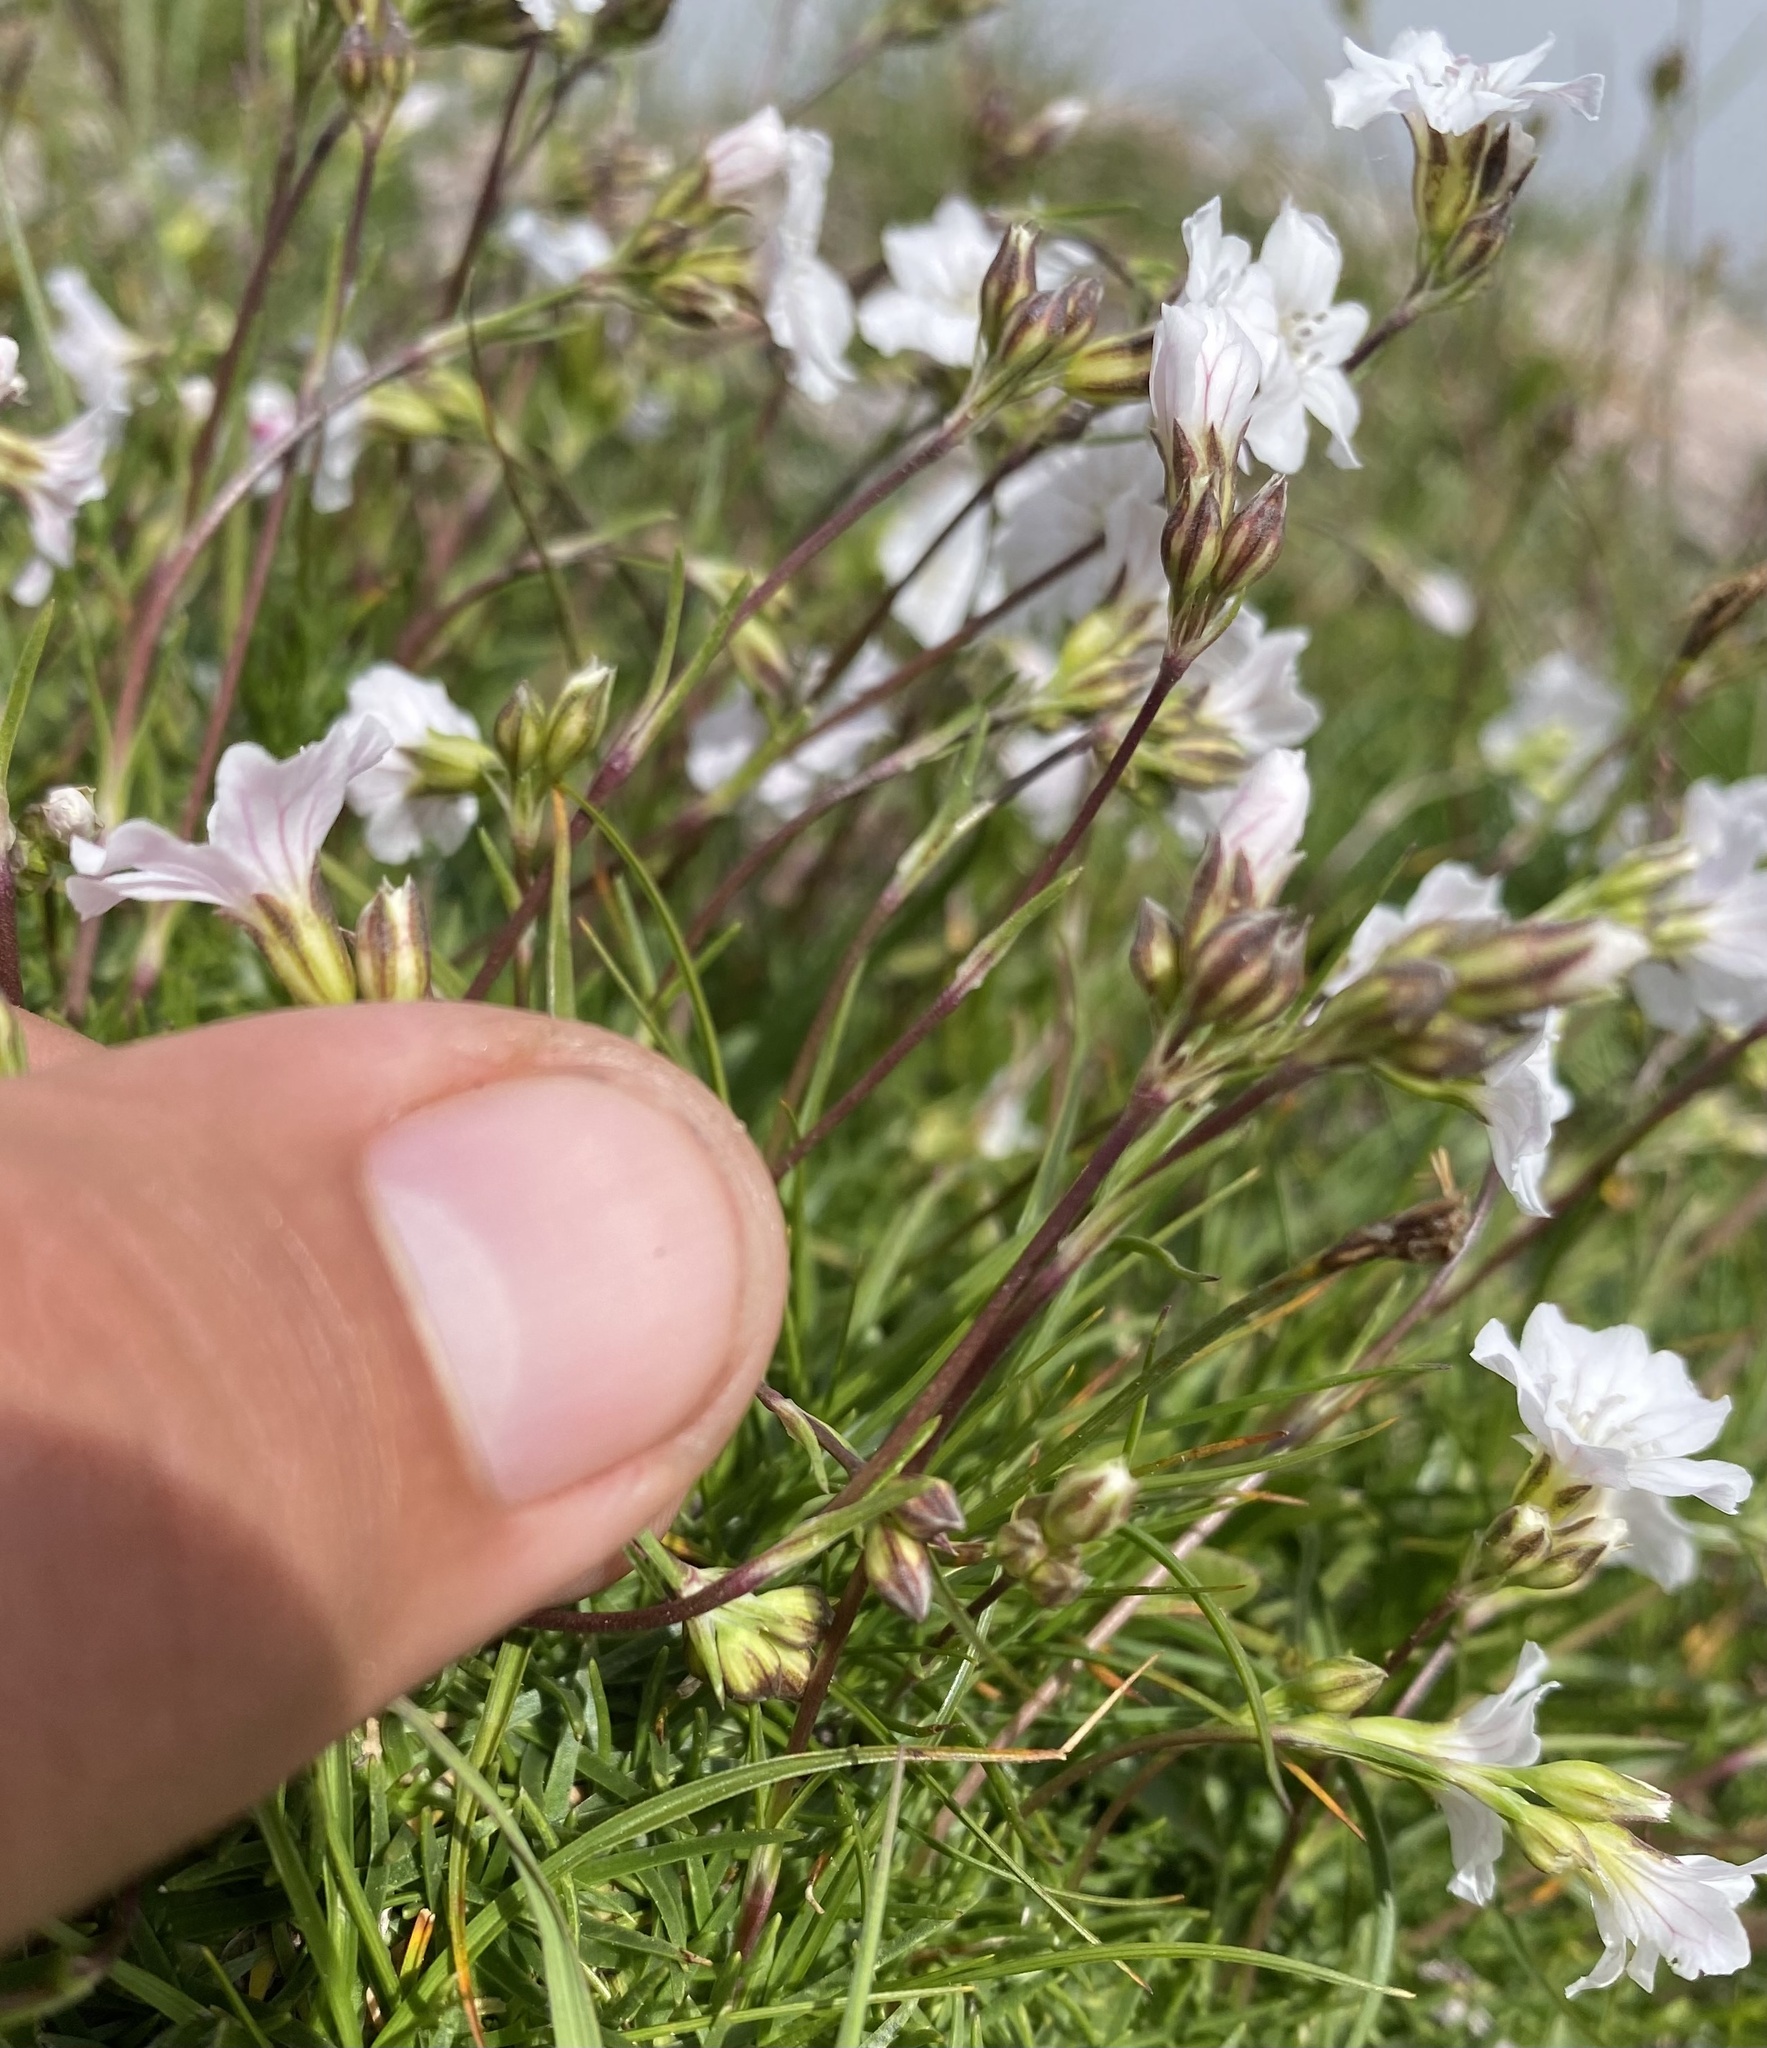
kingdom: Plantae
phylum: Tracheophyta
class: Magnoliopsida
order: Caryophyllales
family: Caryophyllaceae
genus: Gypsophila
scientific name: Gypsophila tenuifolia
